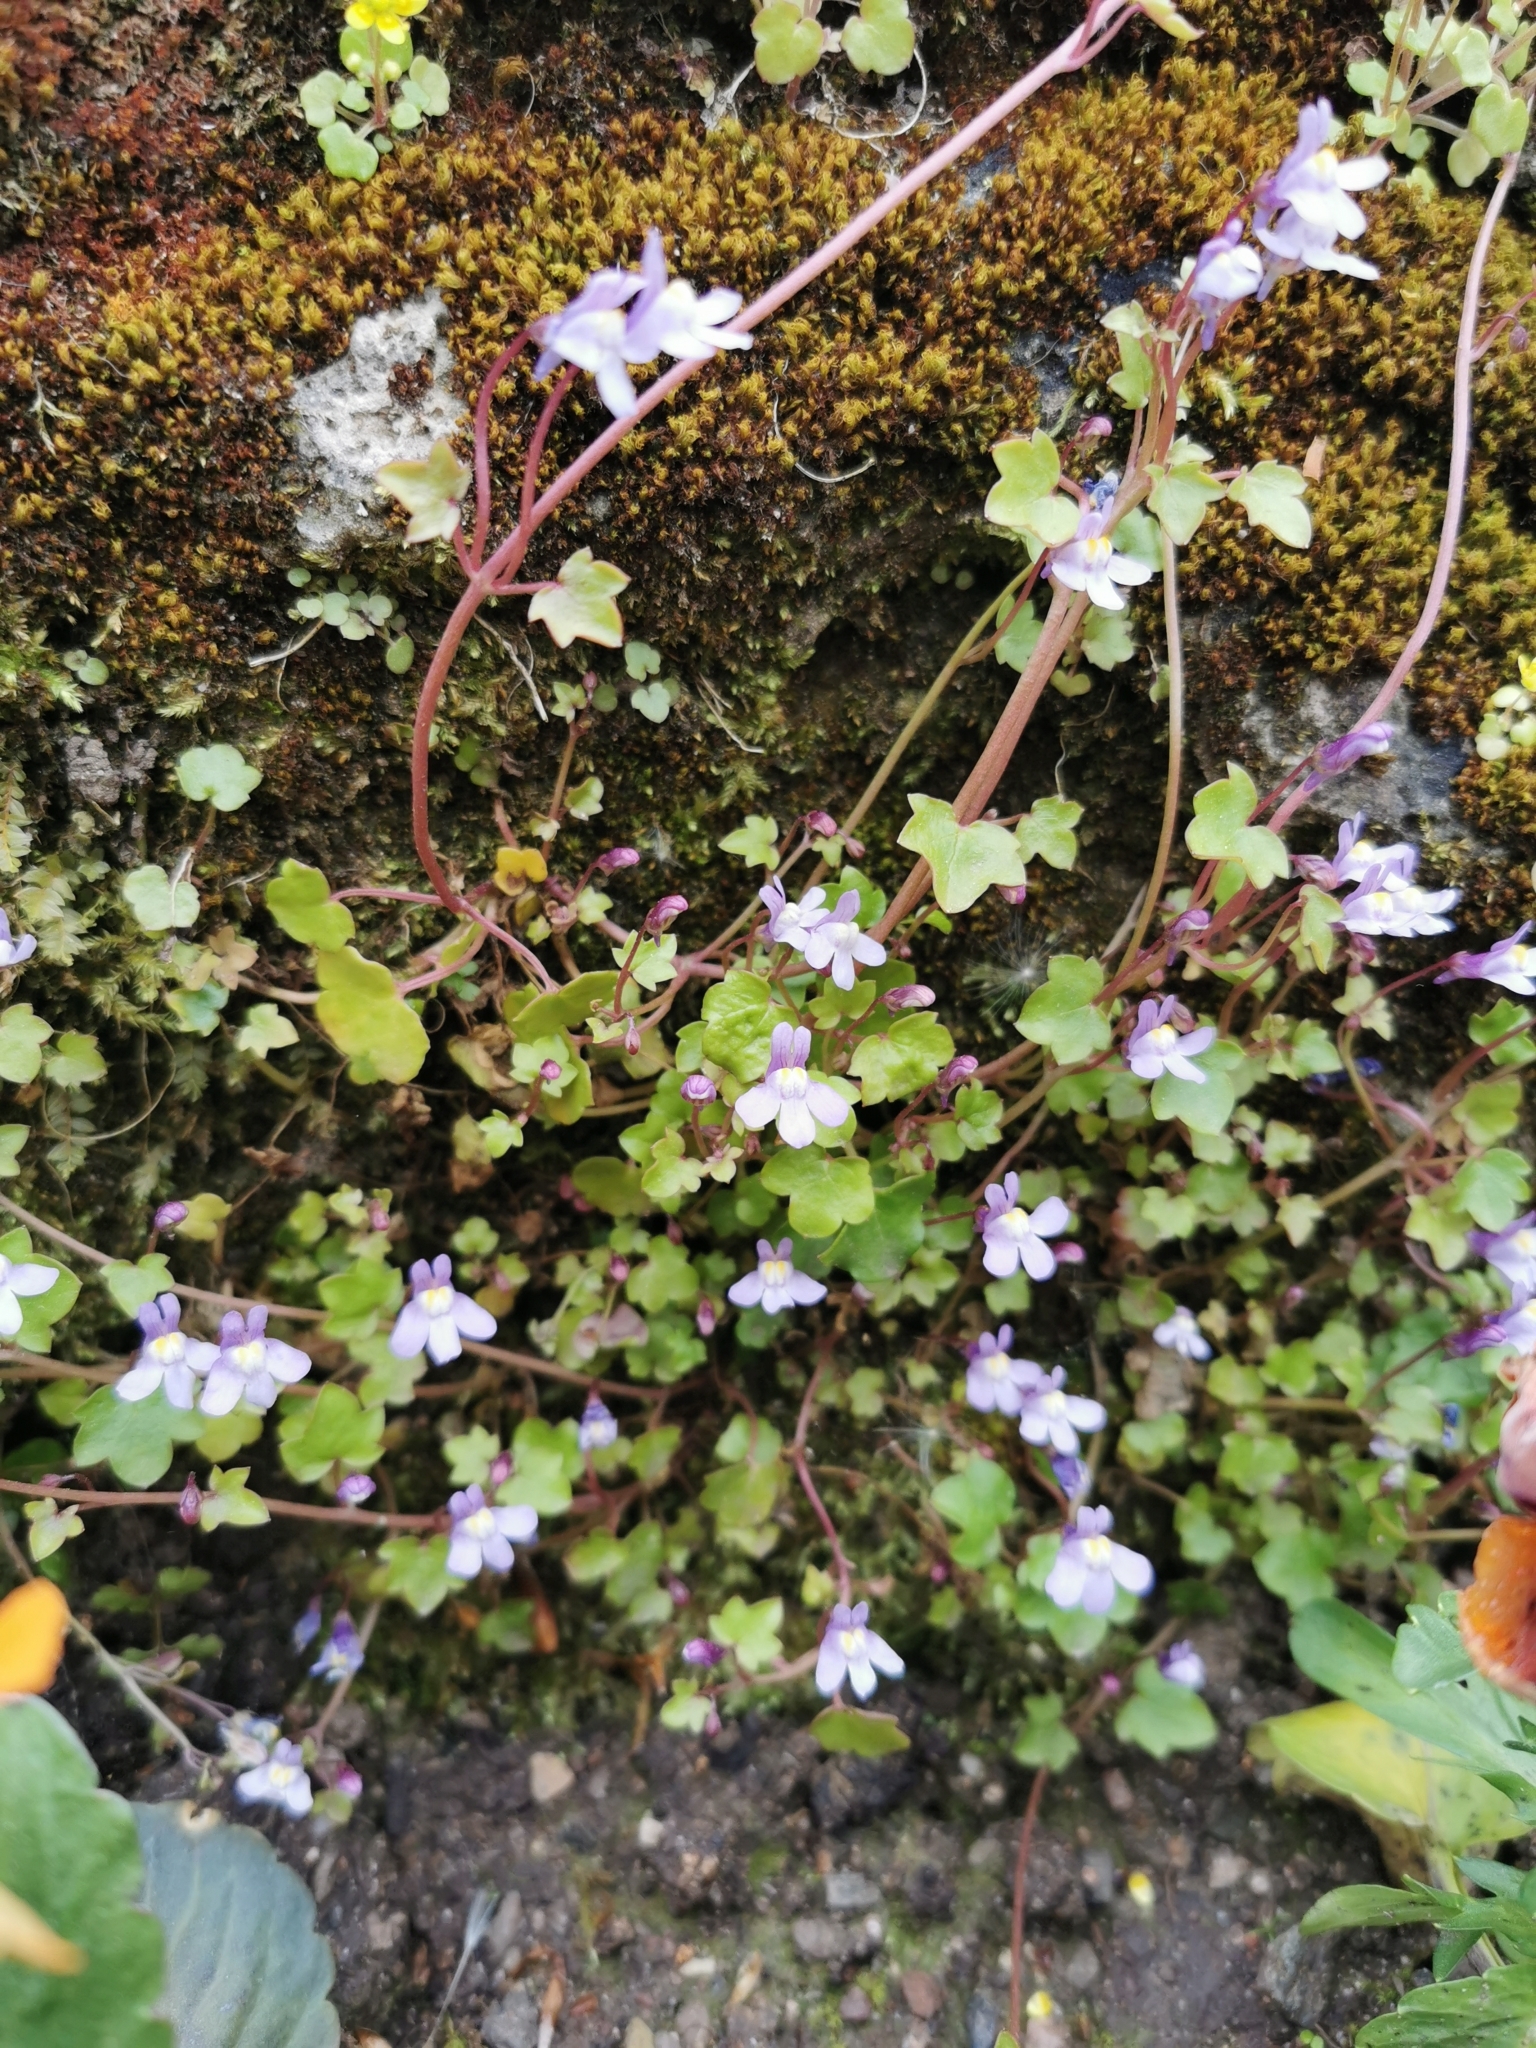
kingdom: Plantae
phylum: Tracheophyta
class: Magnoliopsida
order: Lamiales
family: Plantaginaceae
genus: Cymbalaria
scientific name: Cymbalaria muralis
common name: Ivy-leaved toadflax
